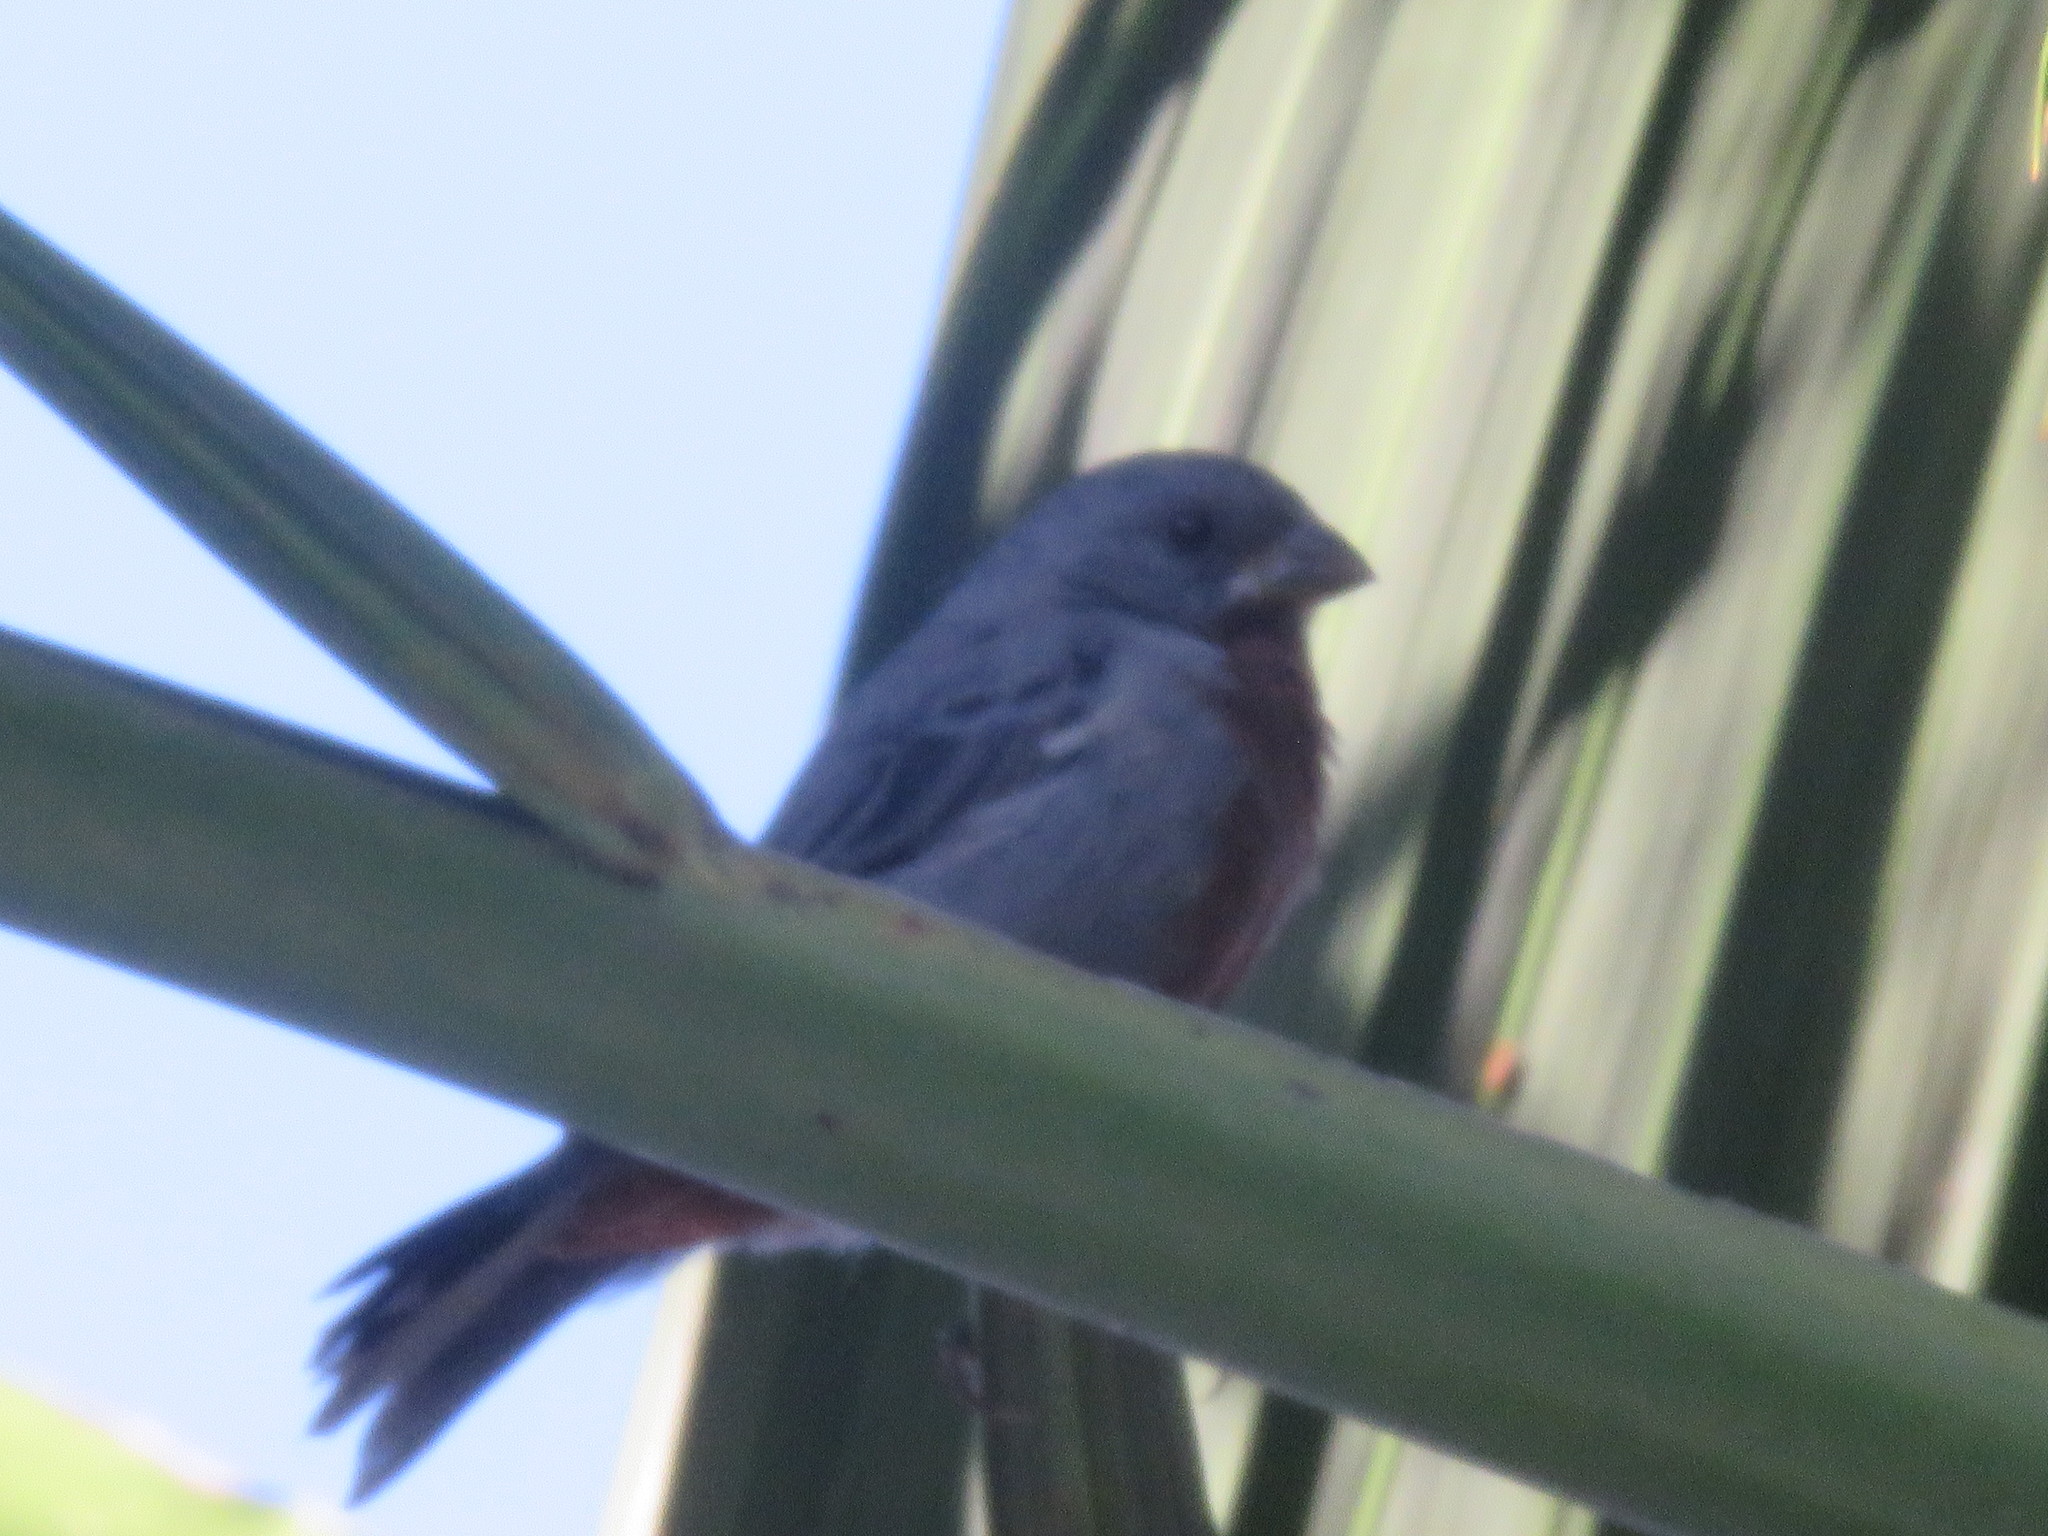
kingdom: Animalia
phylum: Chordata
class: Aves
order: Passeriformes
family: Thraupidae
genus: Sporophila
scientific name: Sporophila castaneiventris
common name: Chestnut-bellied seedeater
